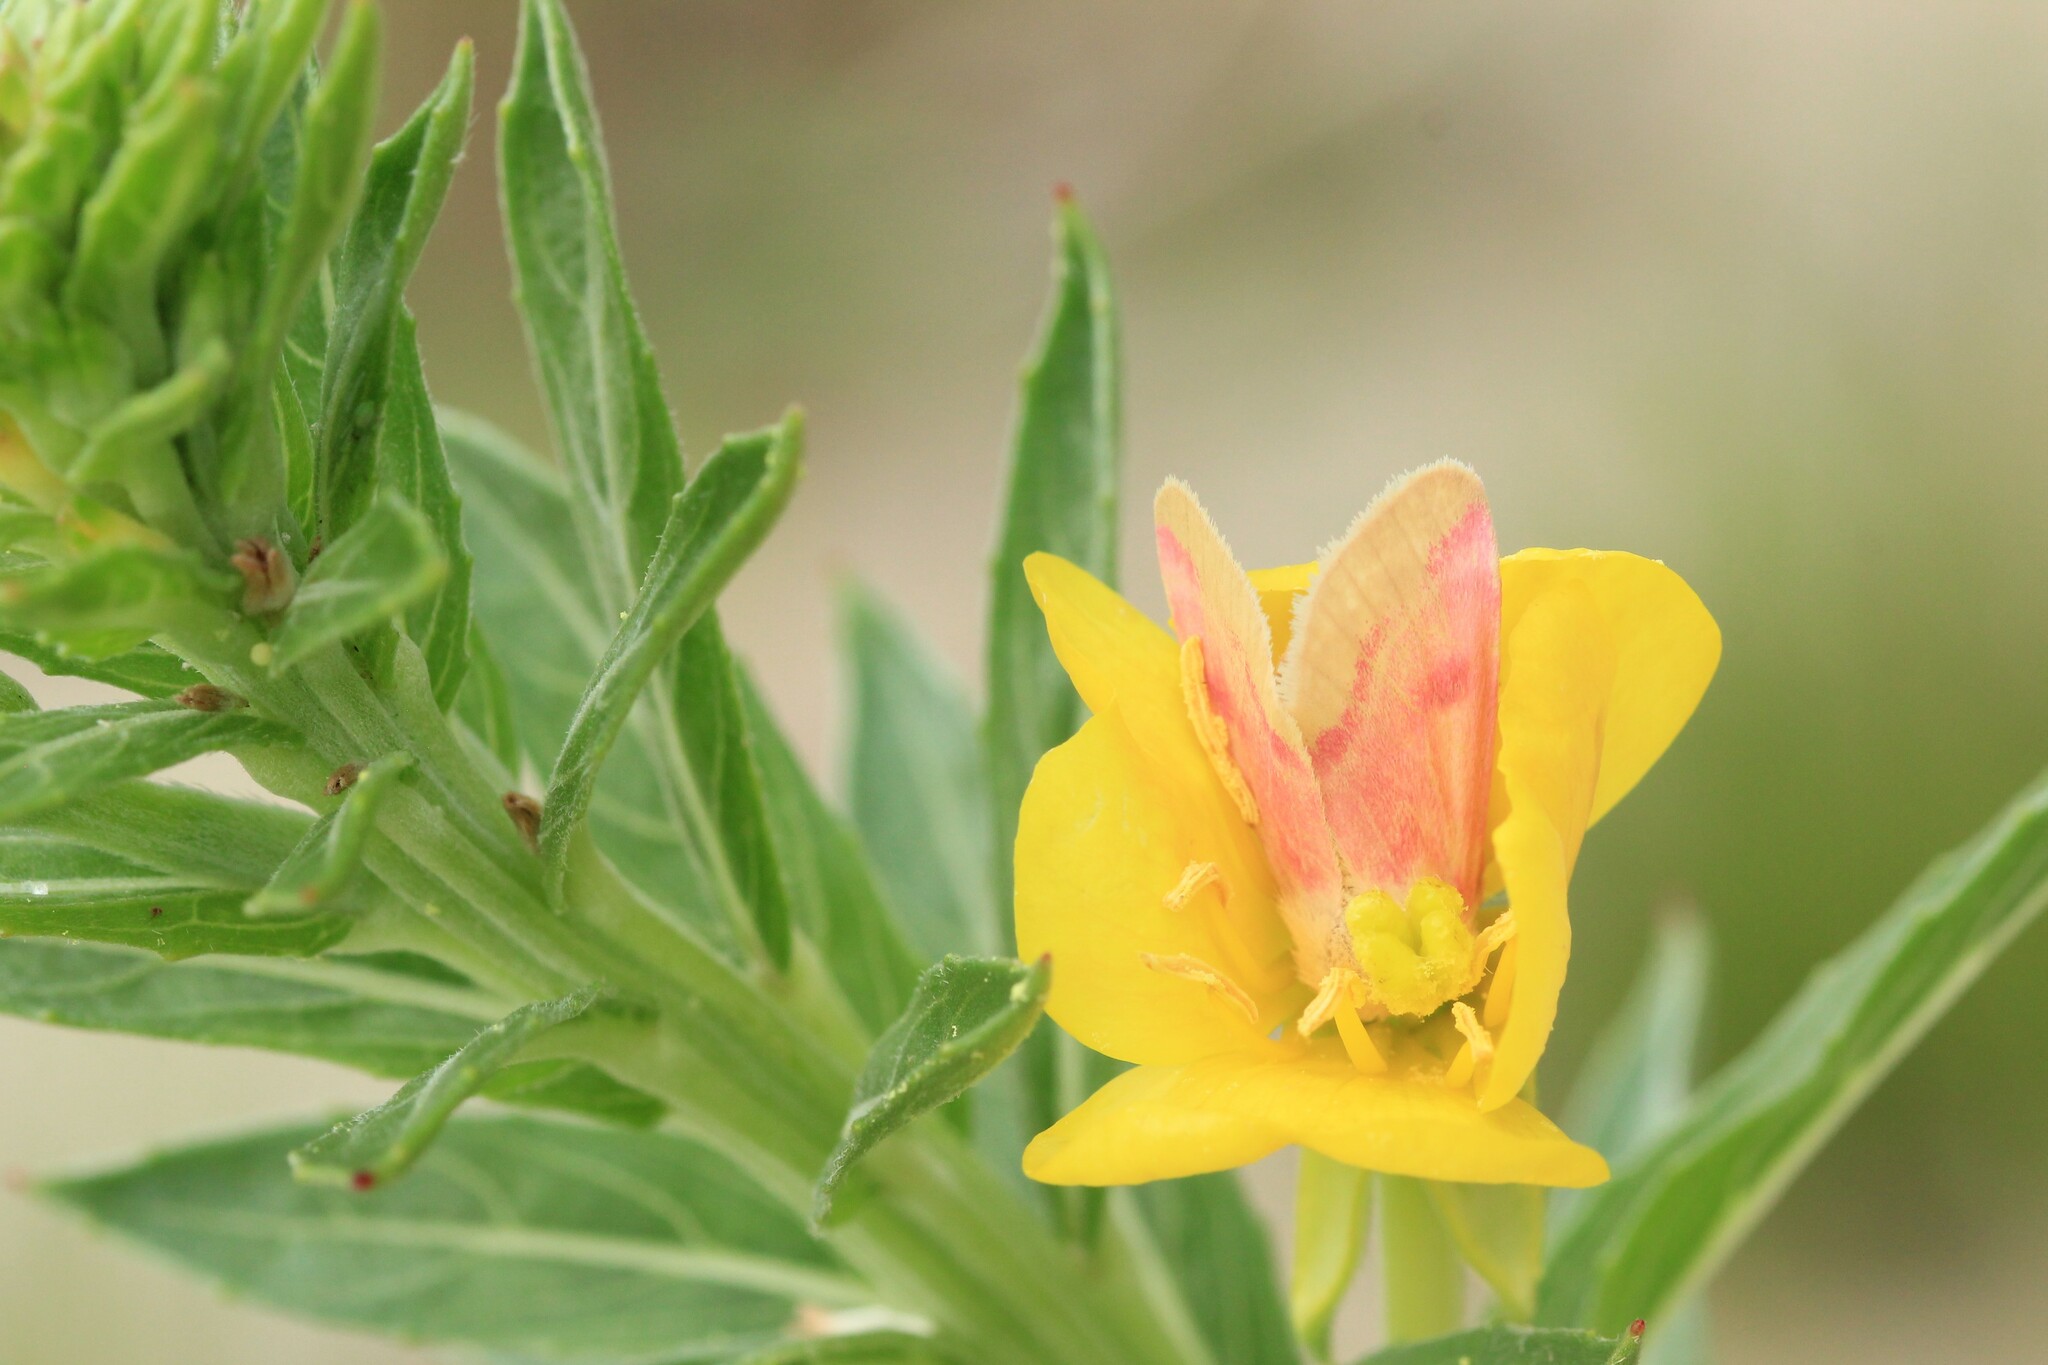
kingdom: Animalia
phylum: Arthropoda
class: Insecta
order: Lepidoptera
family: Noctuidae
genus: Schinia
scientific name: Schinia florida
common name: Primrose moth
